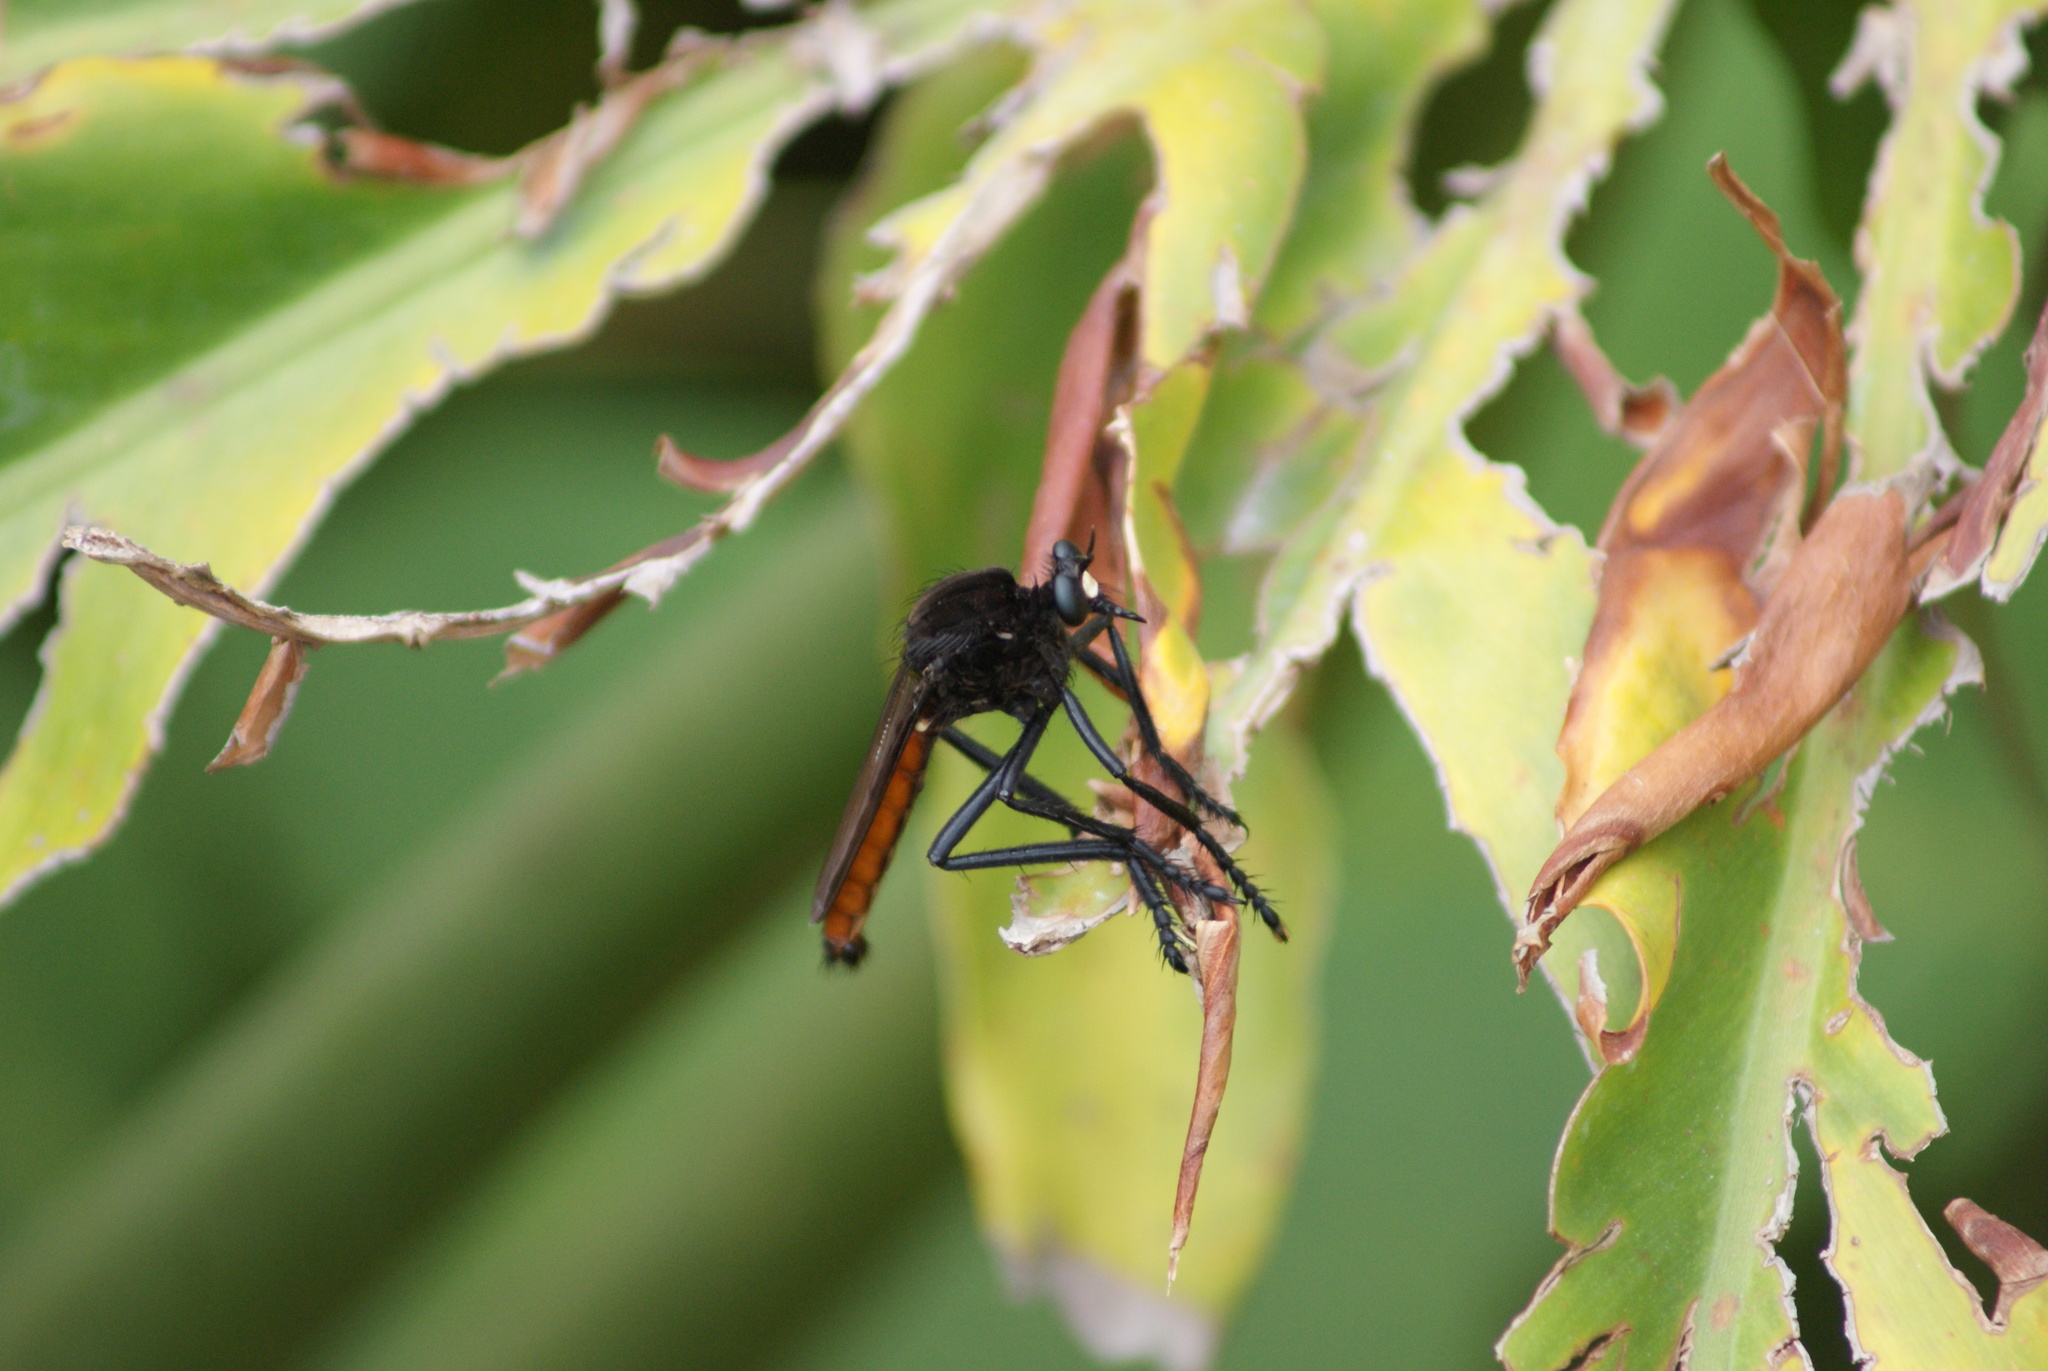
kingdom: Animalia
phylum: Arthropoda
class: Insecta
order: Diptera
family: Asilidae
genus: Archilestris
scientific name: Archilestris magnificus
